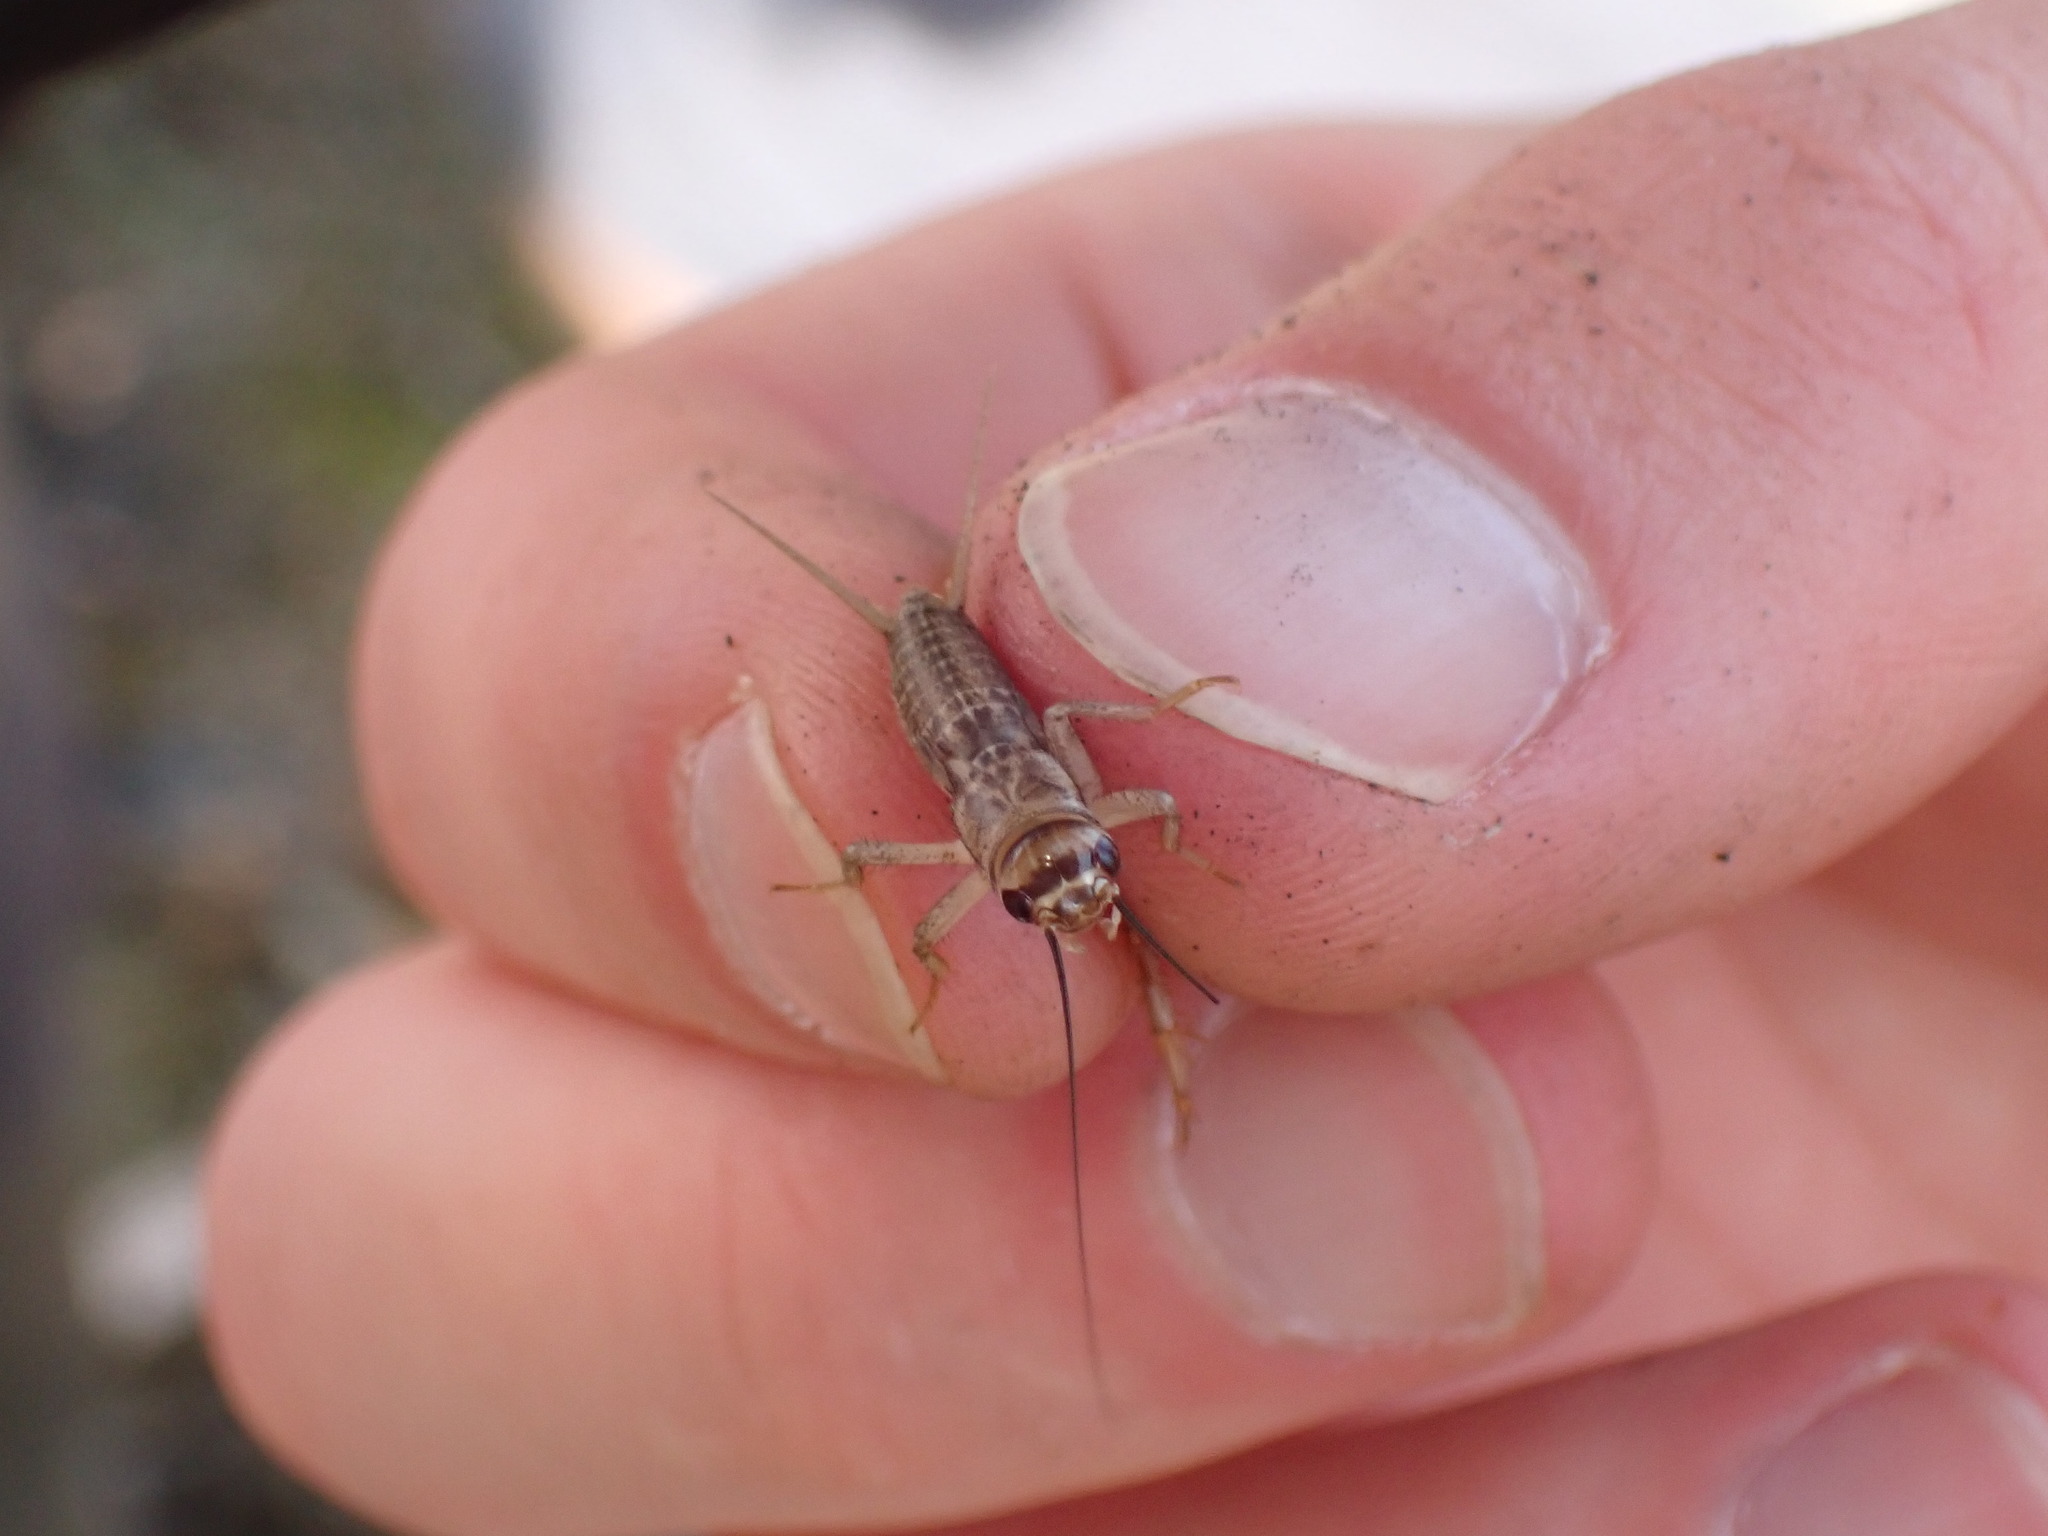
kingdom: Animalia
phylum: Arthropoda
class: Insecta
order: Orthoptera
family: Gryllidae
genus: Acheta
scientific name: Acheta domesticus
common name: House cricket
